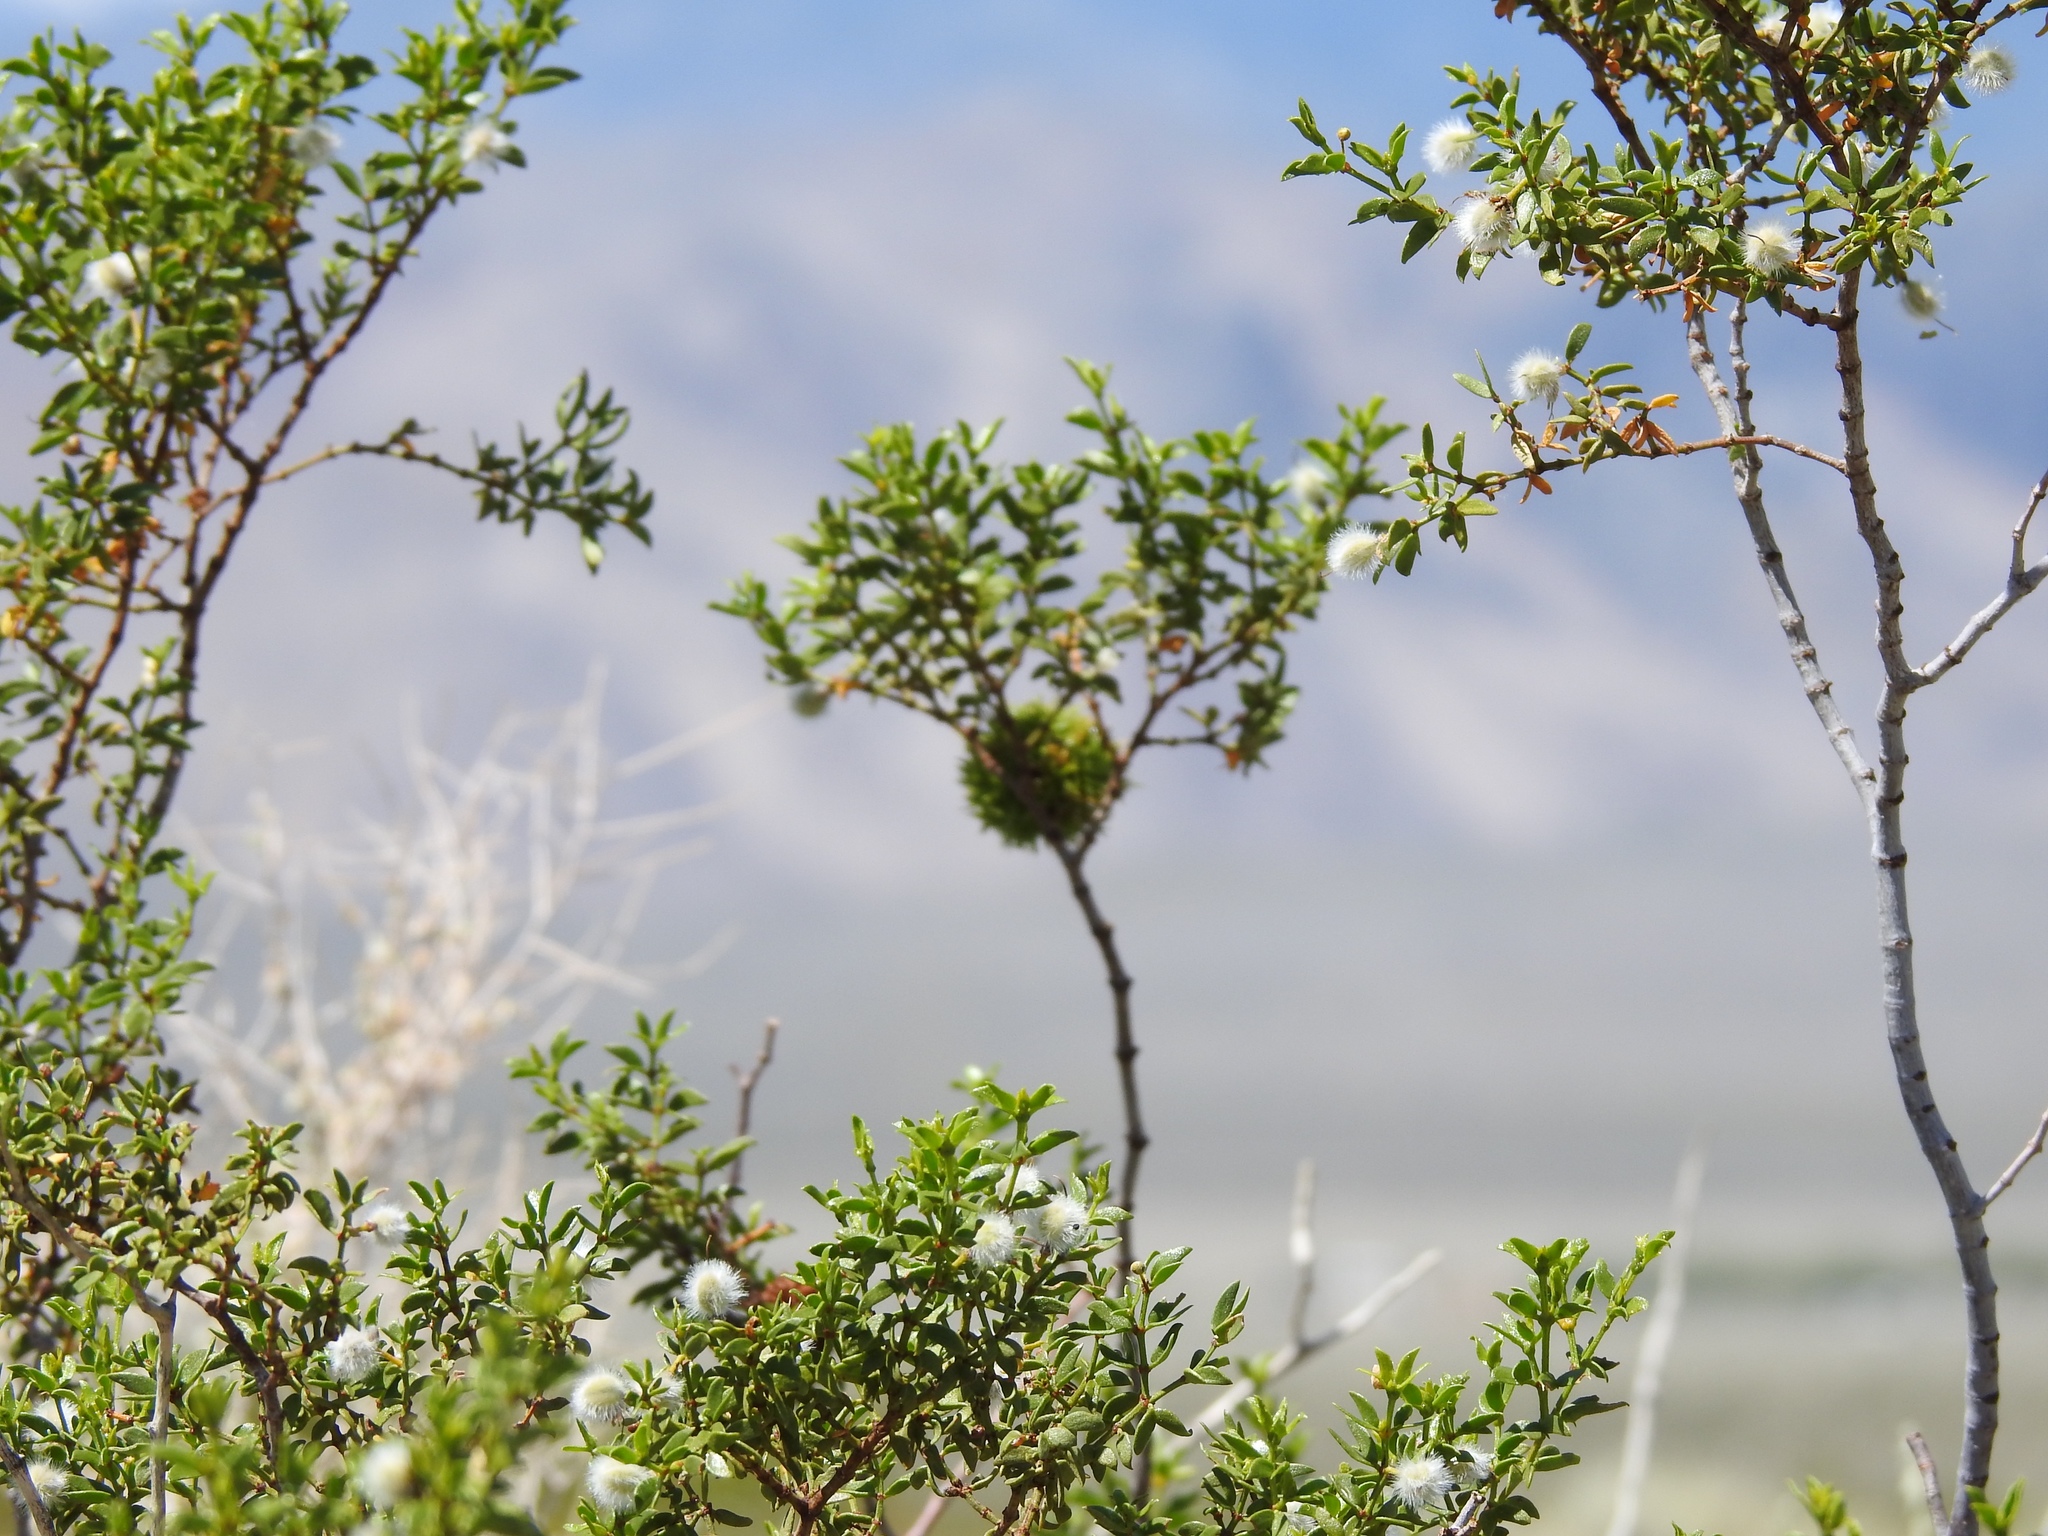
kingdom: Plantae
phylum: Tracheophyta
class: Magnoliopsida
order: Zygophyllales
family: Zygophyllaceae
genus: Larrea
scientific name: Larrea tridentata
